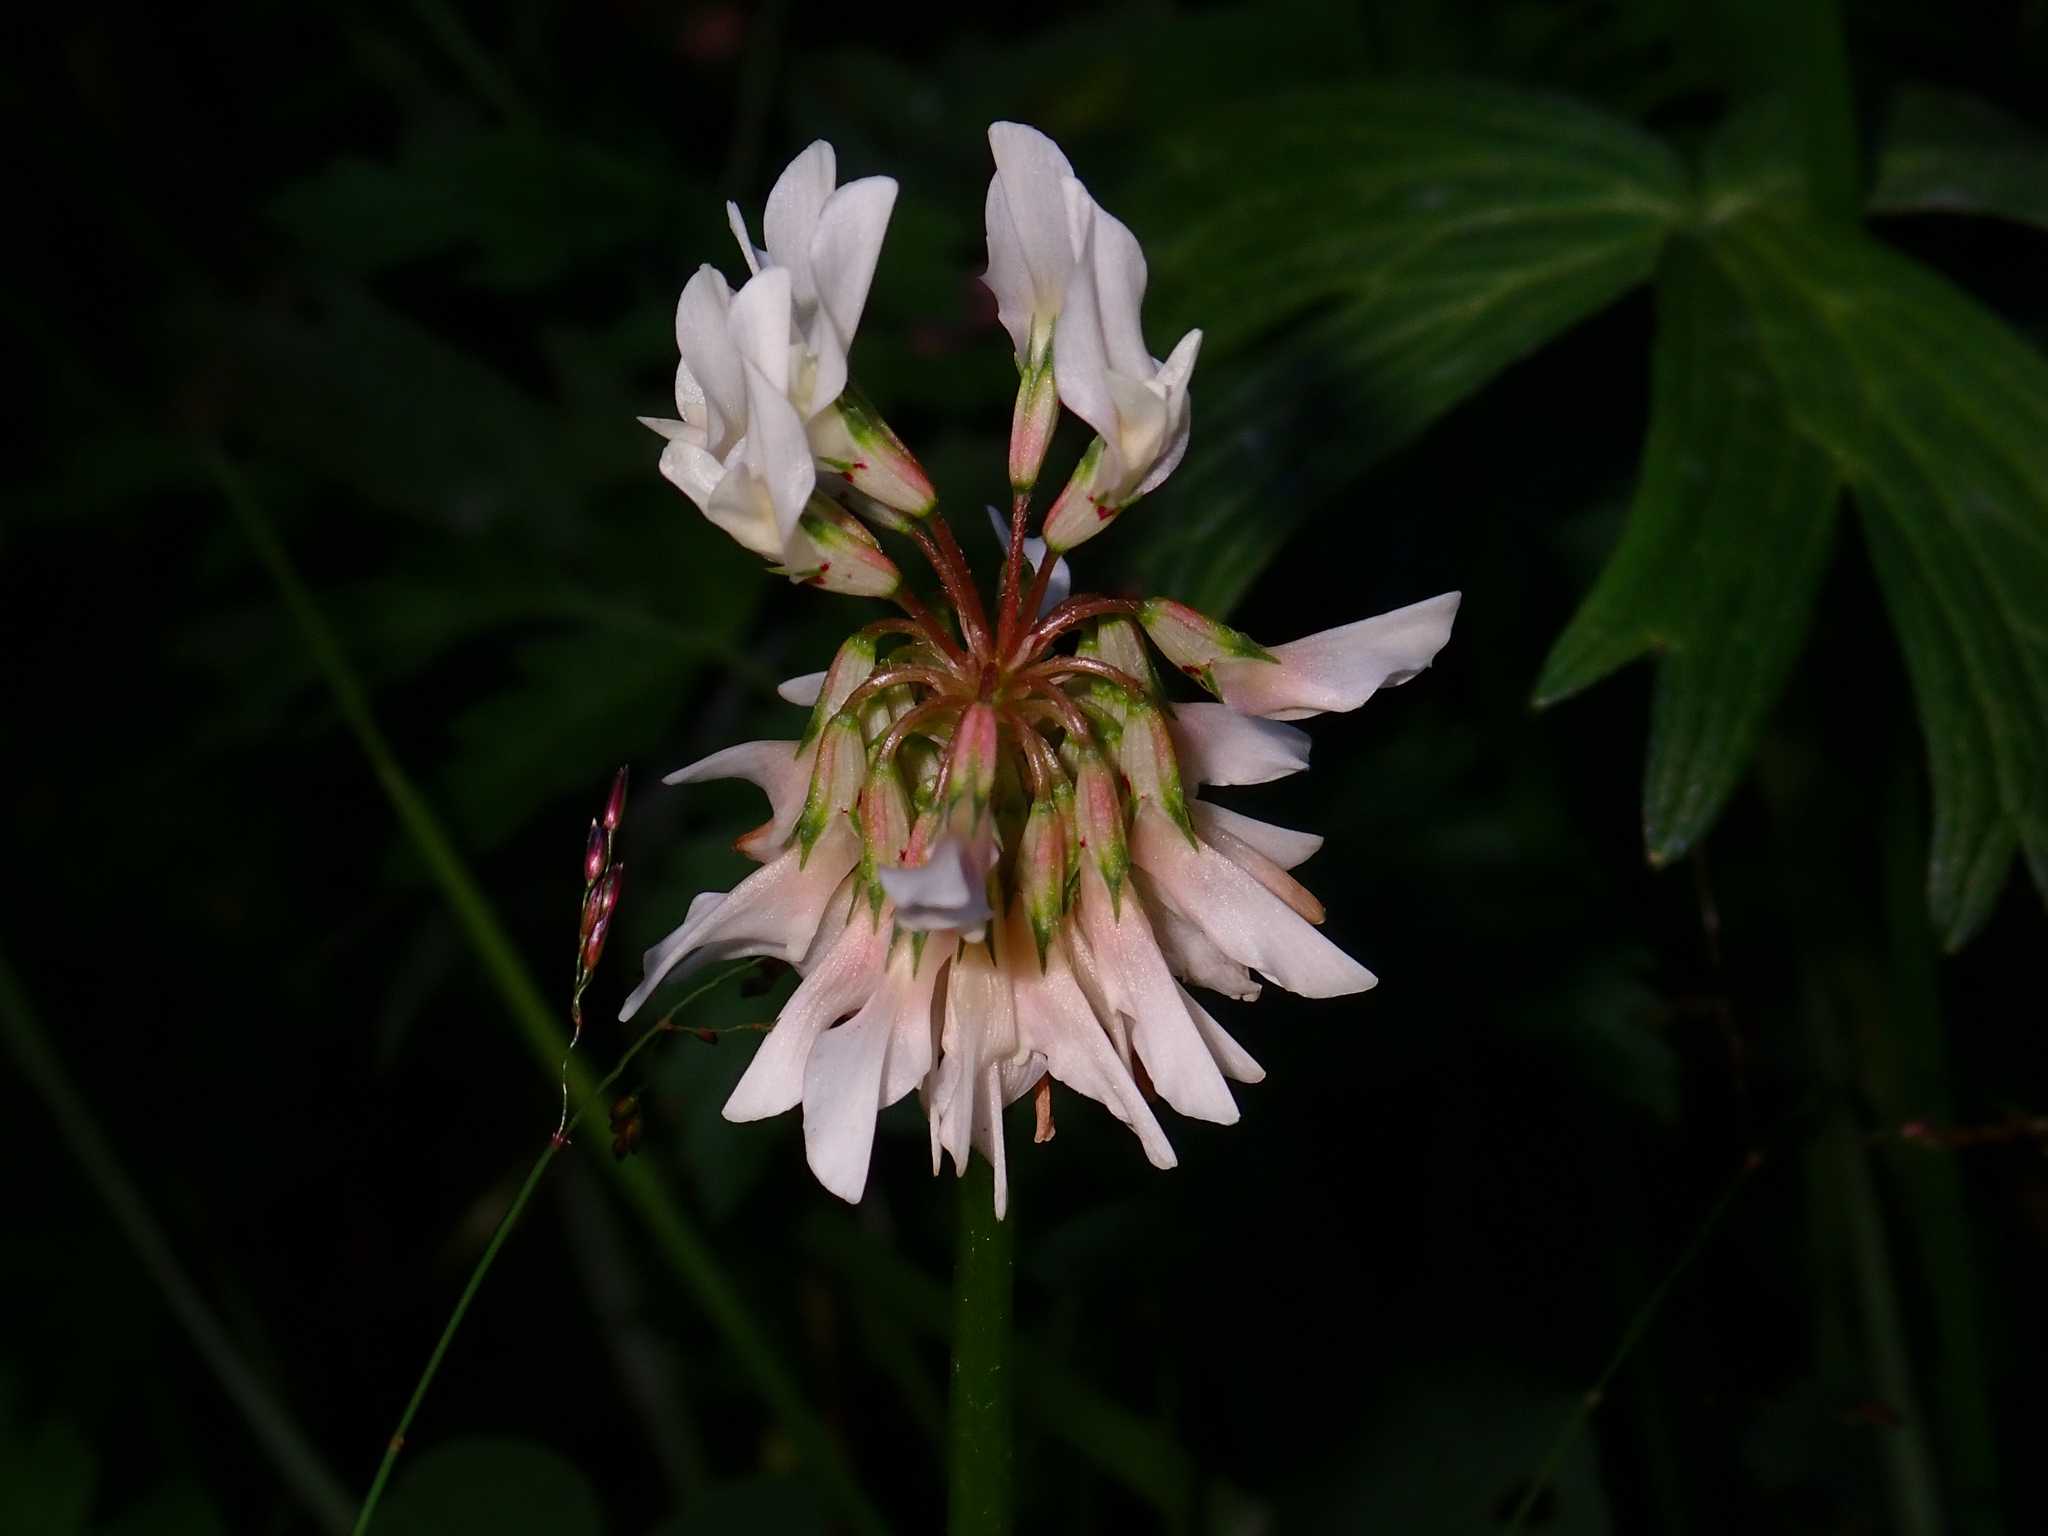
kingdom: Plantae
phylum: Tracheophyta
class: Magnoliopsida
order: Fabales
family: Fabaceae
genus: Trifolium
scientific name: Trifolium repens
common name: White clover
